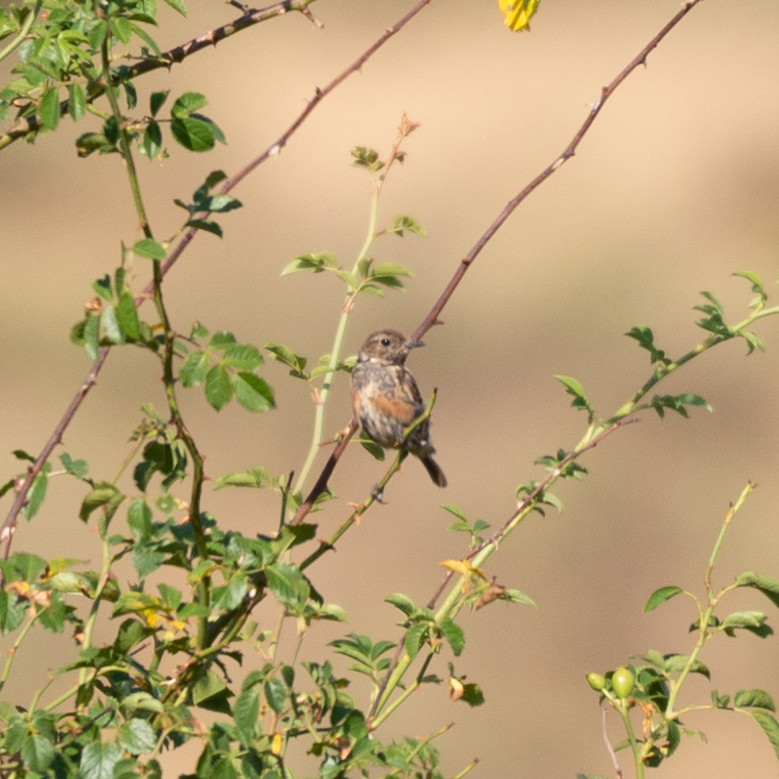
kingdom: Animalia
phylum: Chordata
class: Aves
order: Passeriformes
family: Muscicapidae
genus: Saxicola
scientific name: Saxicola rubicola
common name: European stonechat
